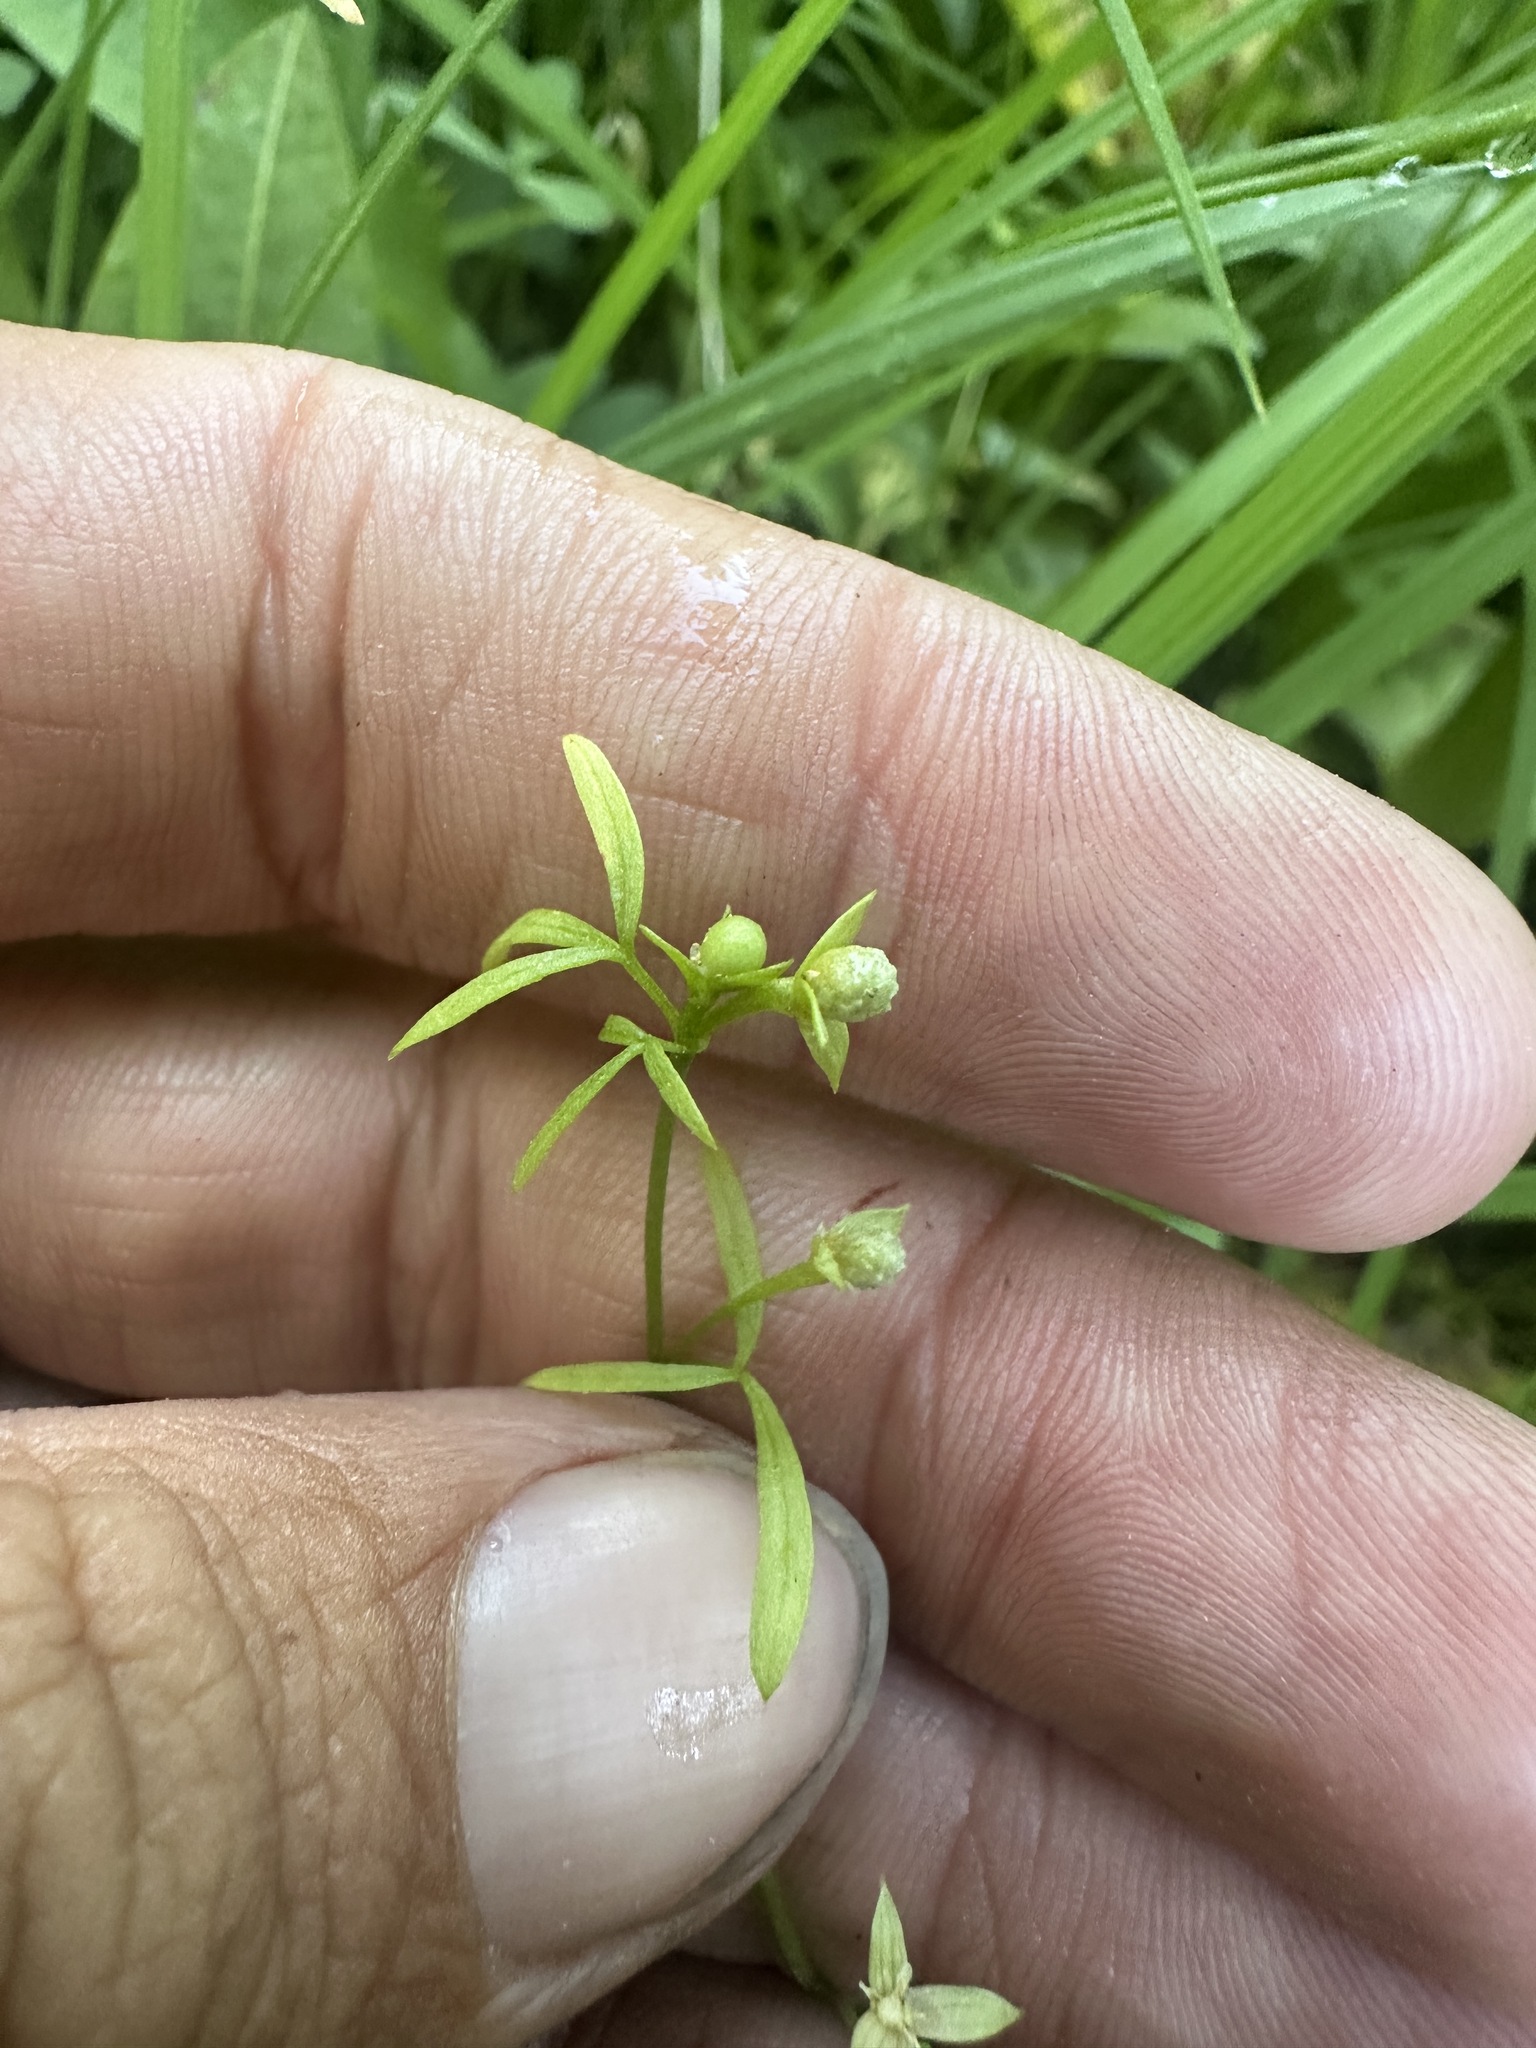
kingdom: Plantae
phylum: Tracheophyta
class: Magnoliopsida
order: Brassicales
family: Limnanthaceae
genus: Floerkea
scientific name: Floerkea proserpinacoides
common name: False mermaid
